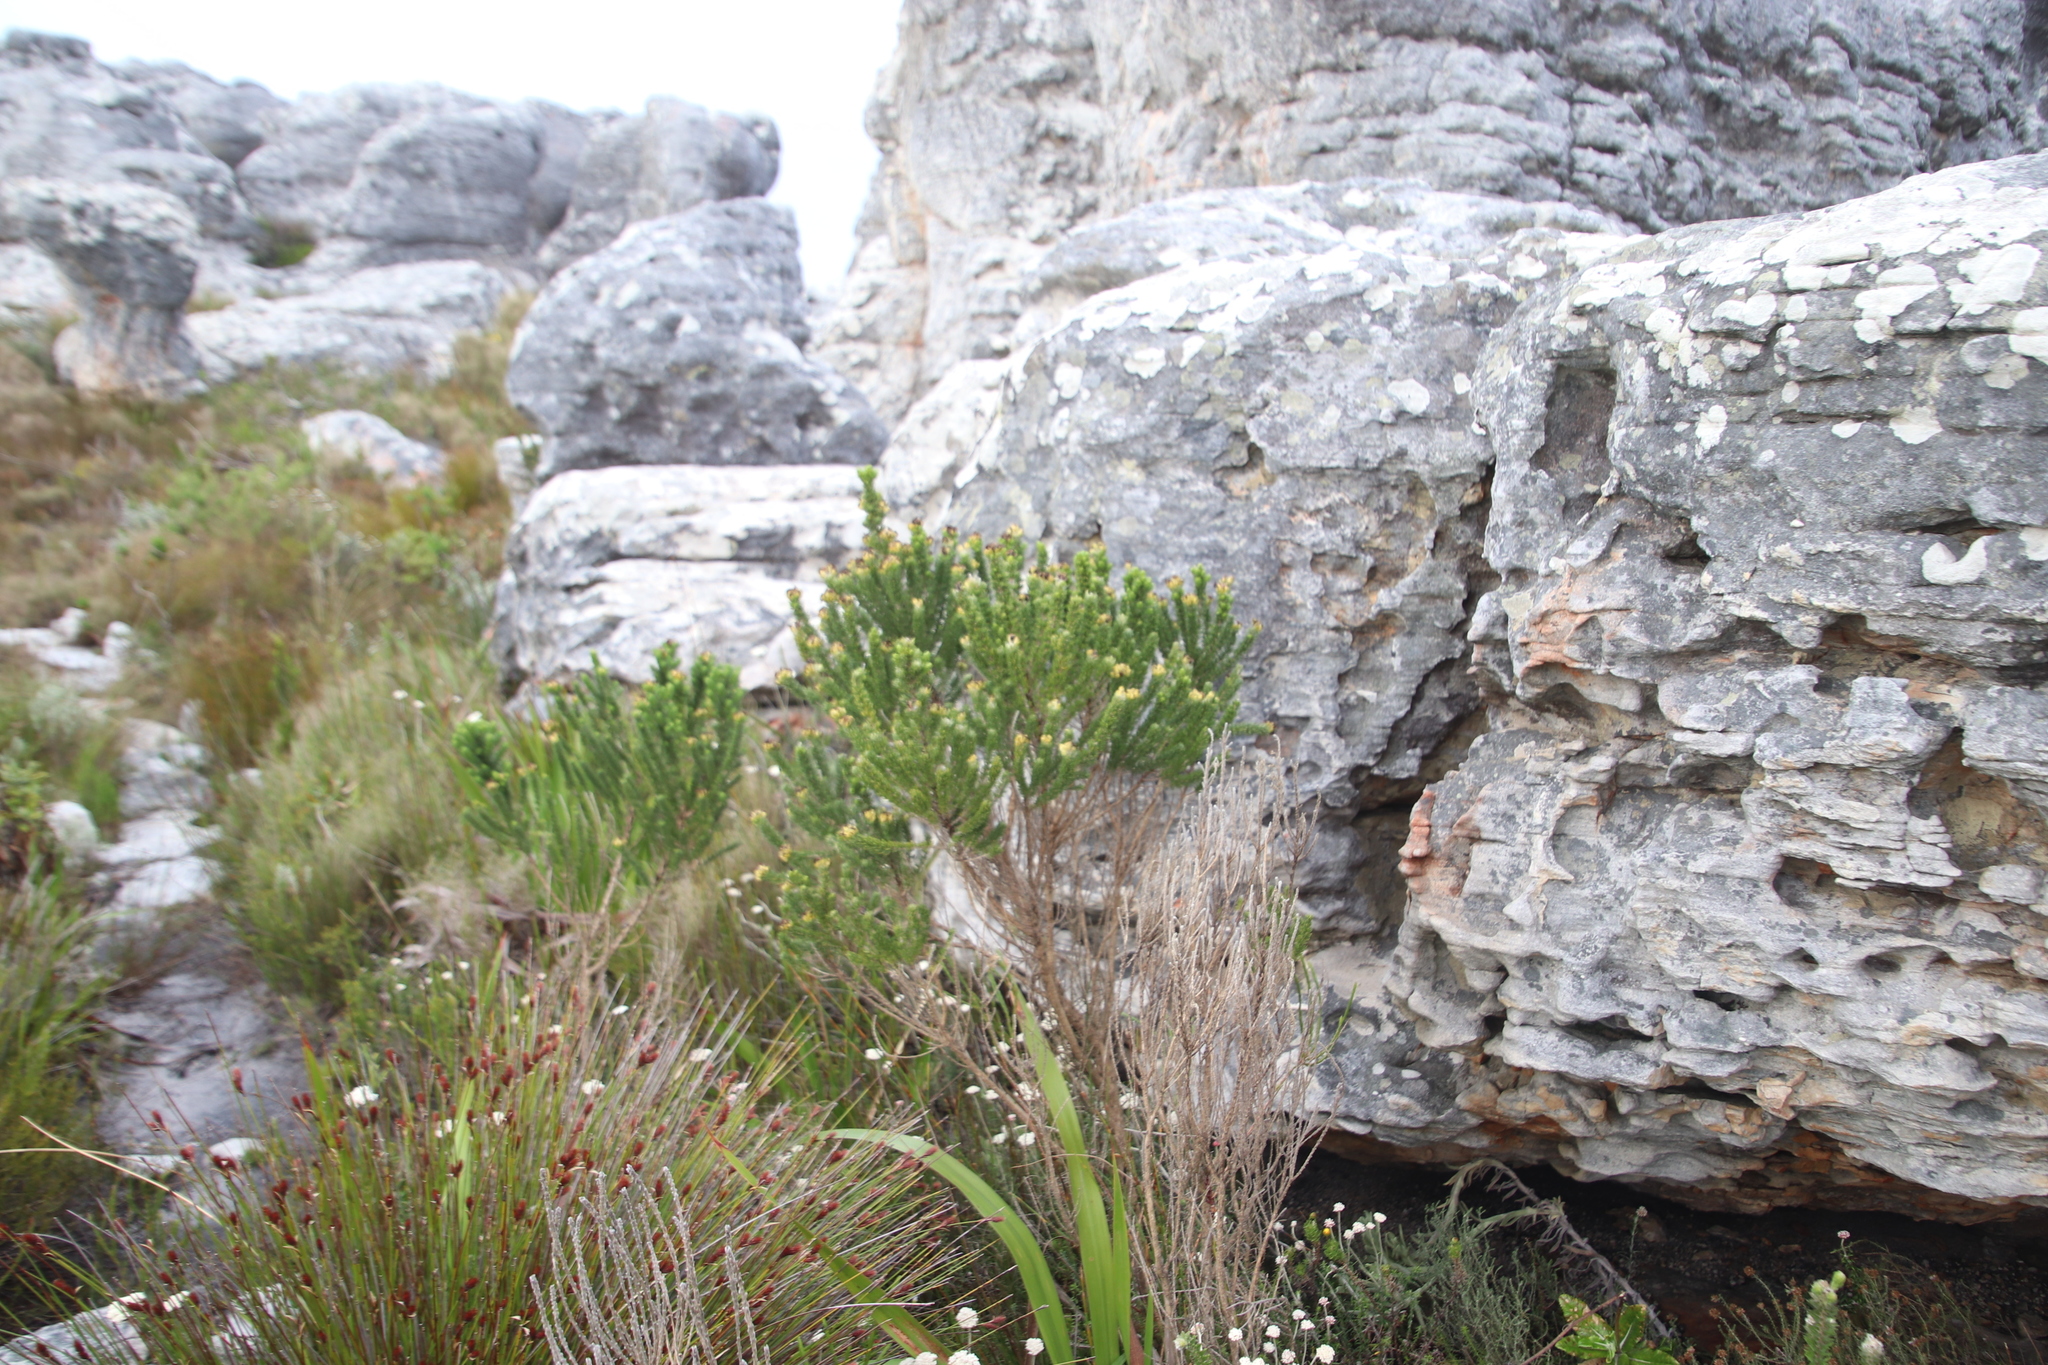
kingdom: Plantae
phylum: Tracheophyta
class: Magnoliopsida
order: Fabales
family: Fabaceae
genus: Aspalathus
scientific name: Aspalathus capitata
